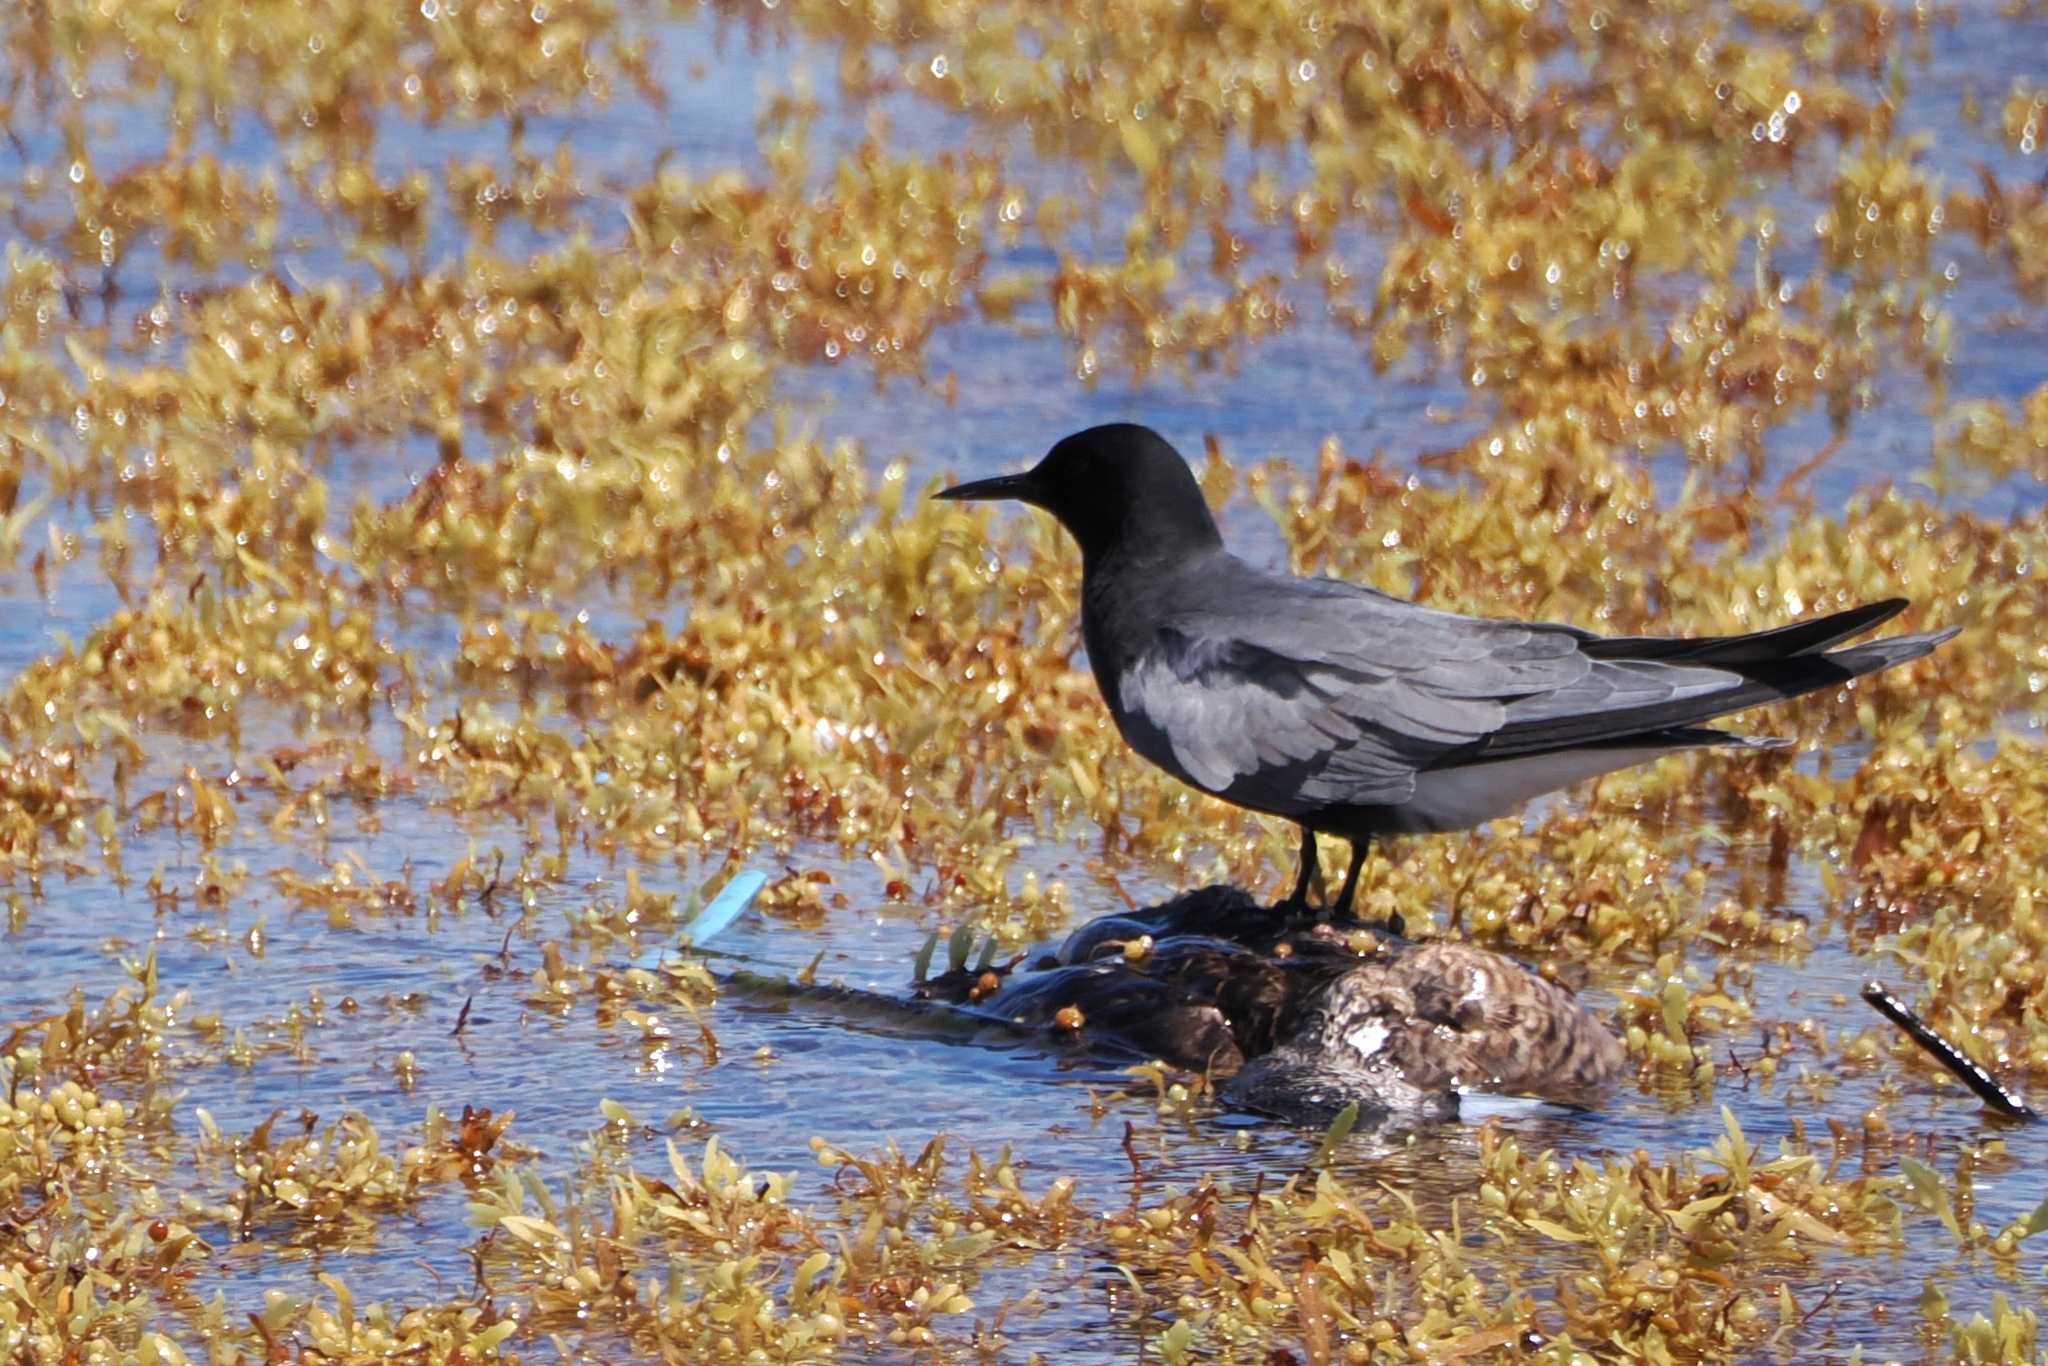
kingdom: Animalia
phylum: Chordata
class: Aves
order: Charadriiformes
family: Laridae
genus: Chlidonias
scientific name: Chlidonias niger
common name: Black tern
